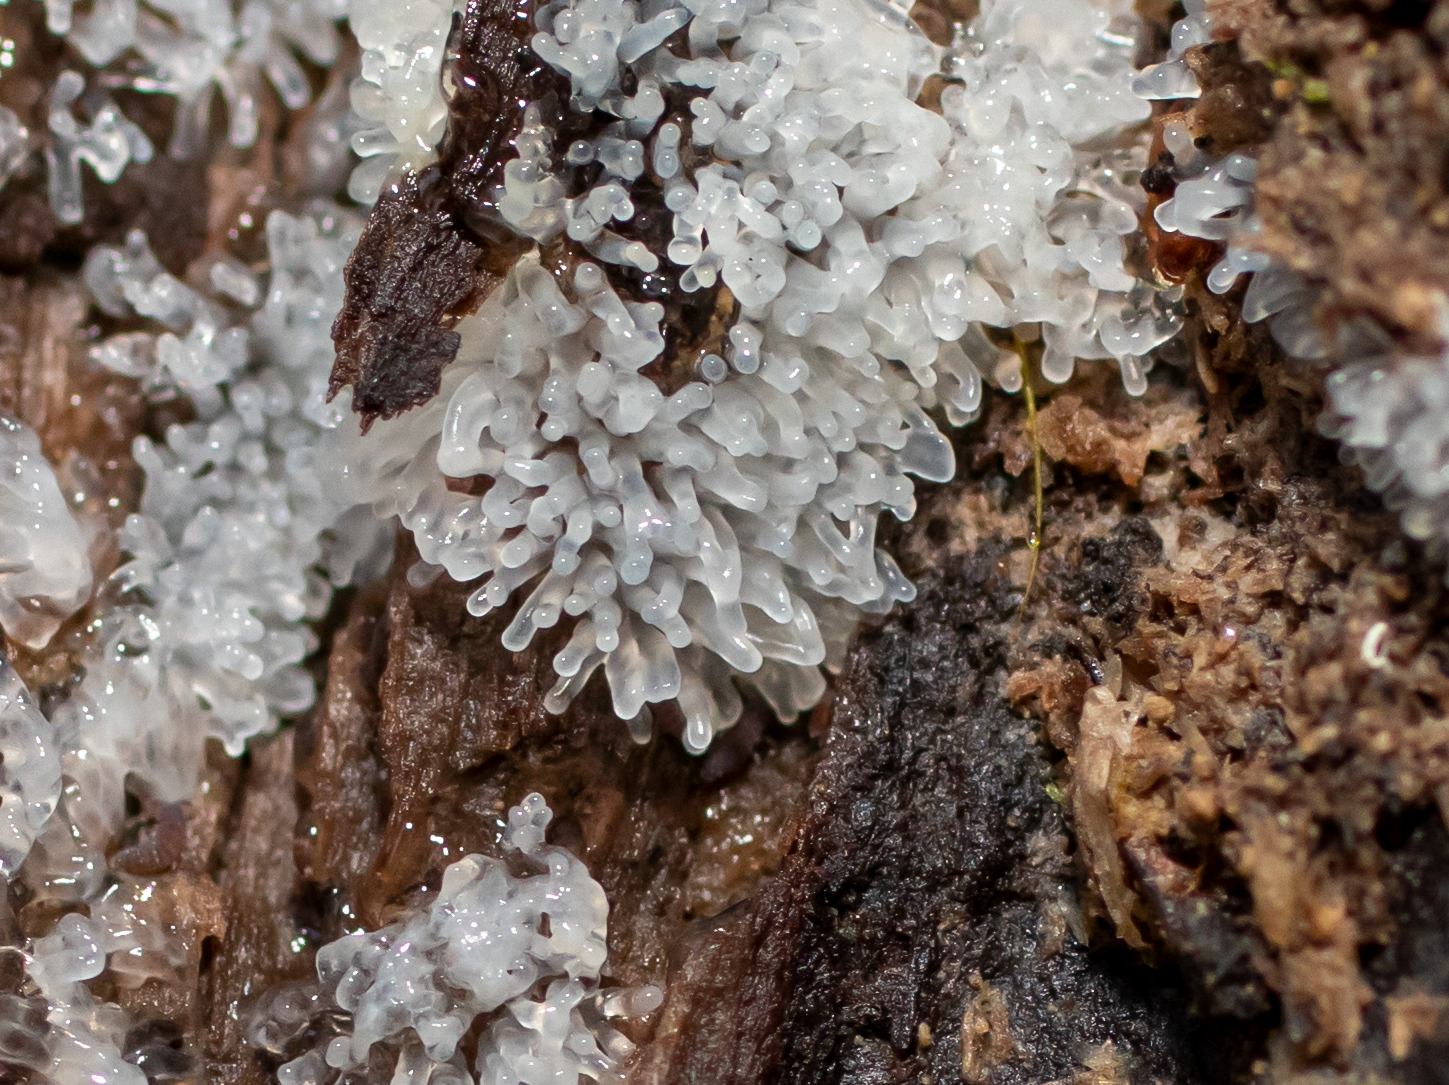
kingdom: Protozoa
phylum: Mycetozoa
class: Protosteliomycetes
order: Ceratiomyxales
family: Ceratiomyxaceae
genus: Ceratiomyxa
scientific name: Ceratiomyxa fruticulosa
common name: Honeycomb coral slime mold
